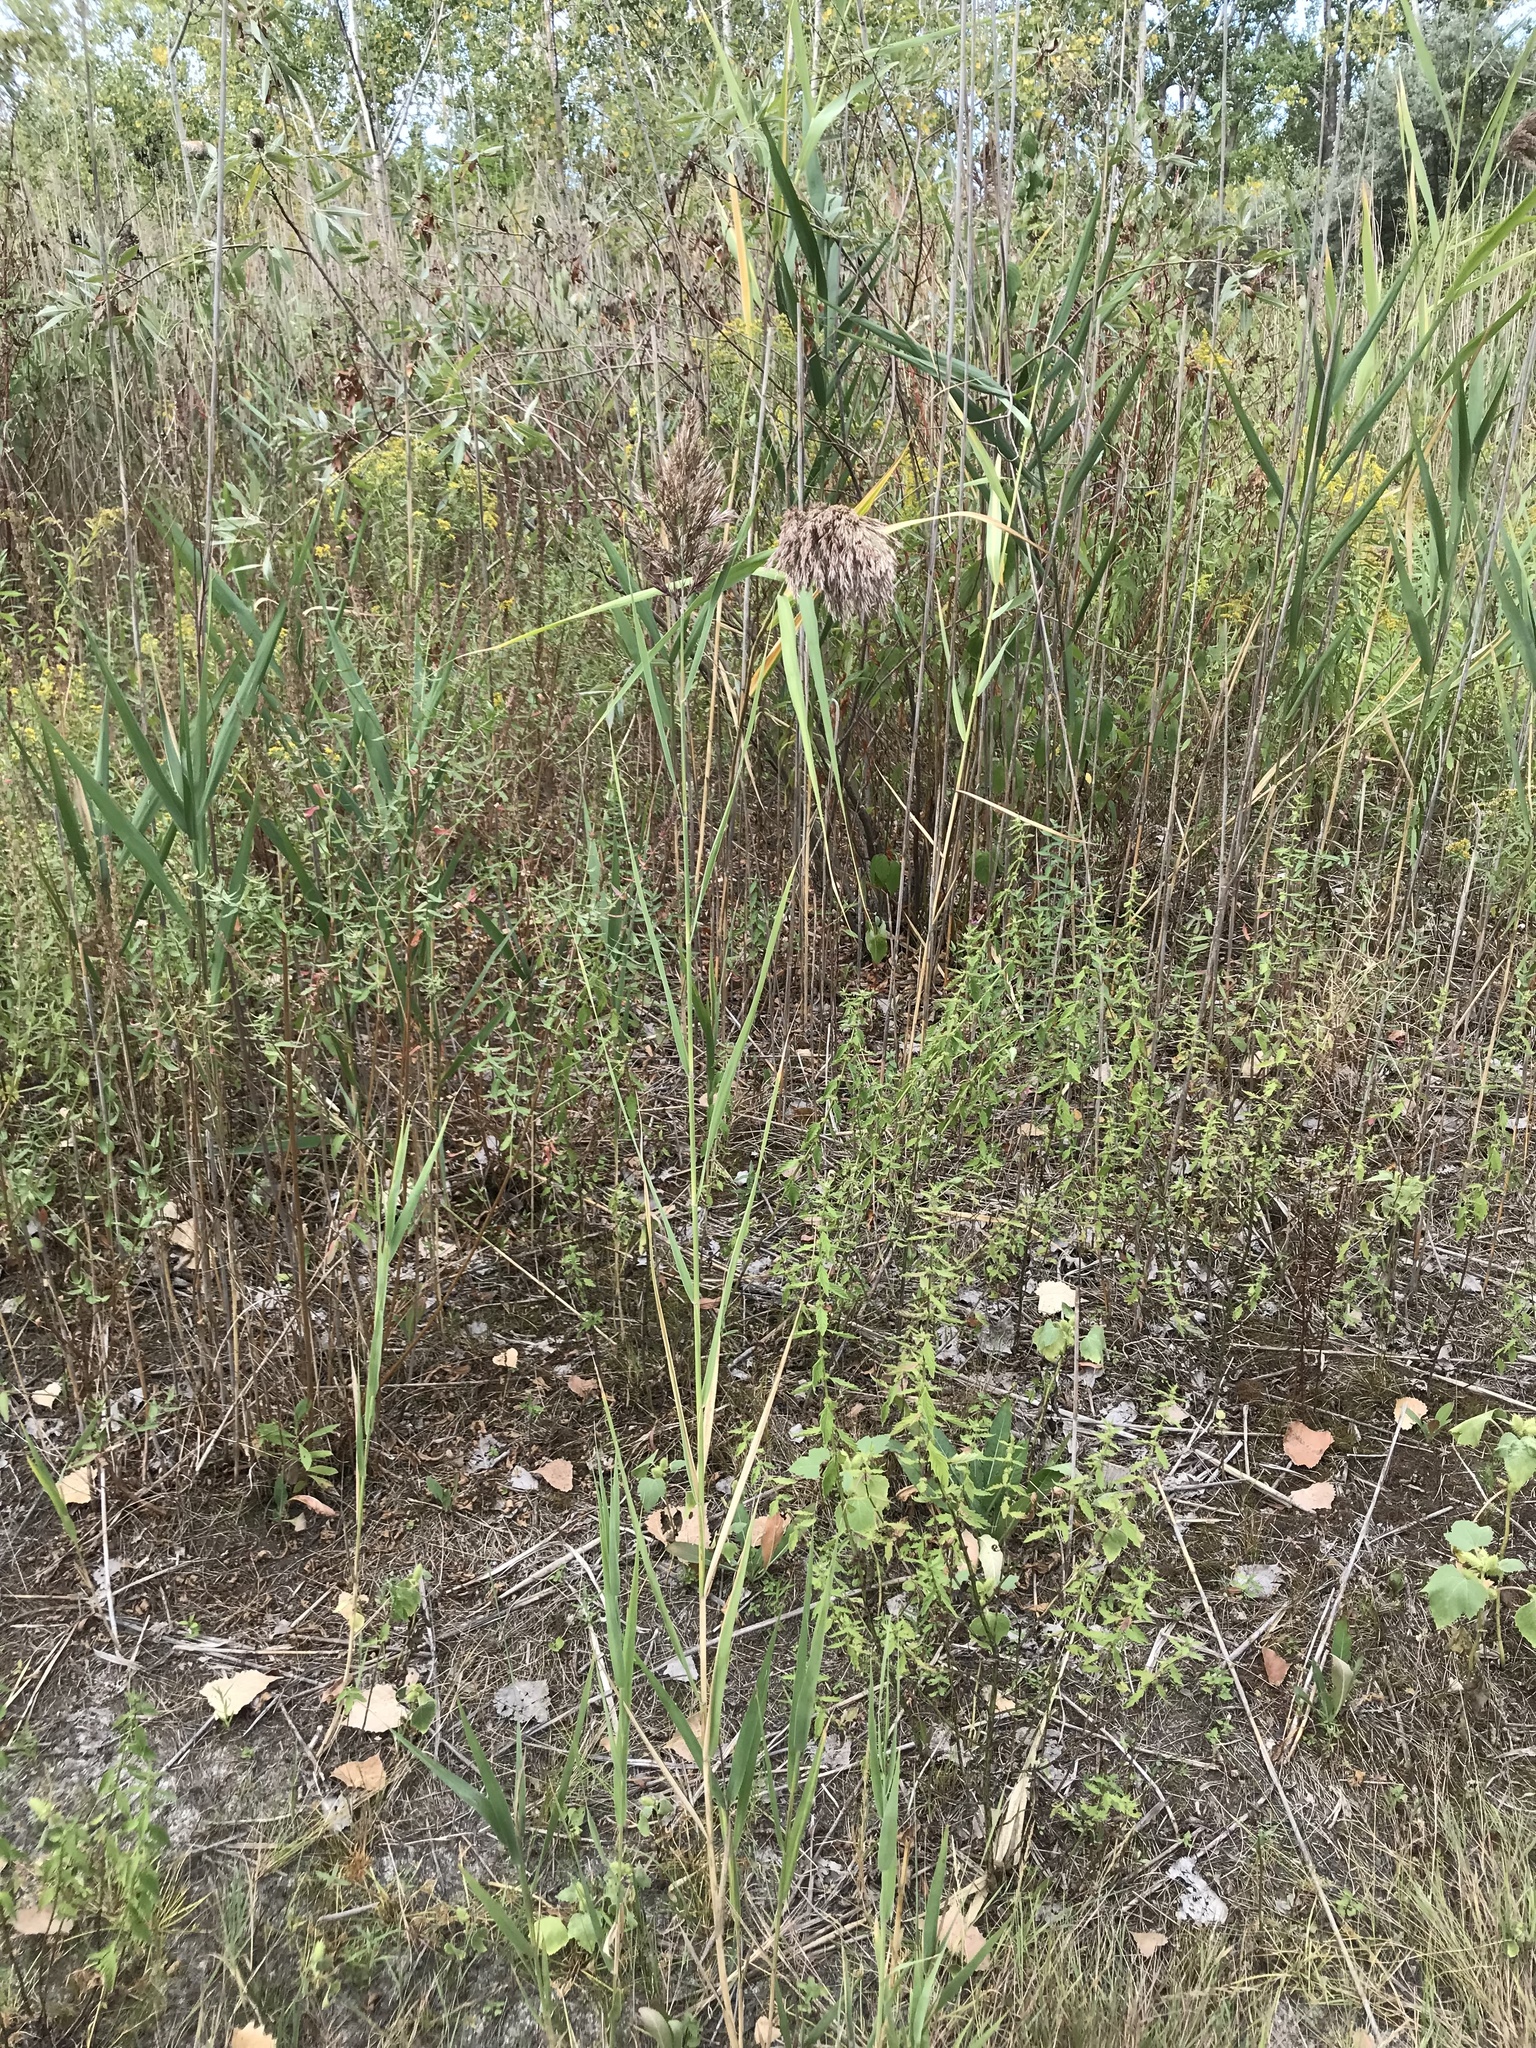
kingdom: Plantae
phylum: Tracheophyta
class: Liliopsida
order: Poales
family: Poaceae
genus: Phragmites
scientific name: Phragmites australis
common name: Common reed
